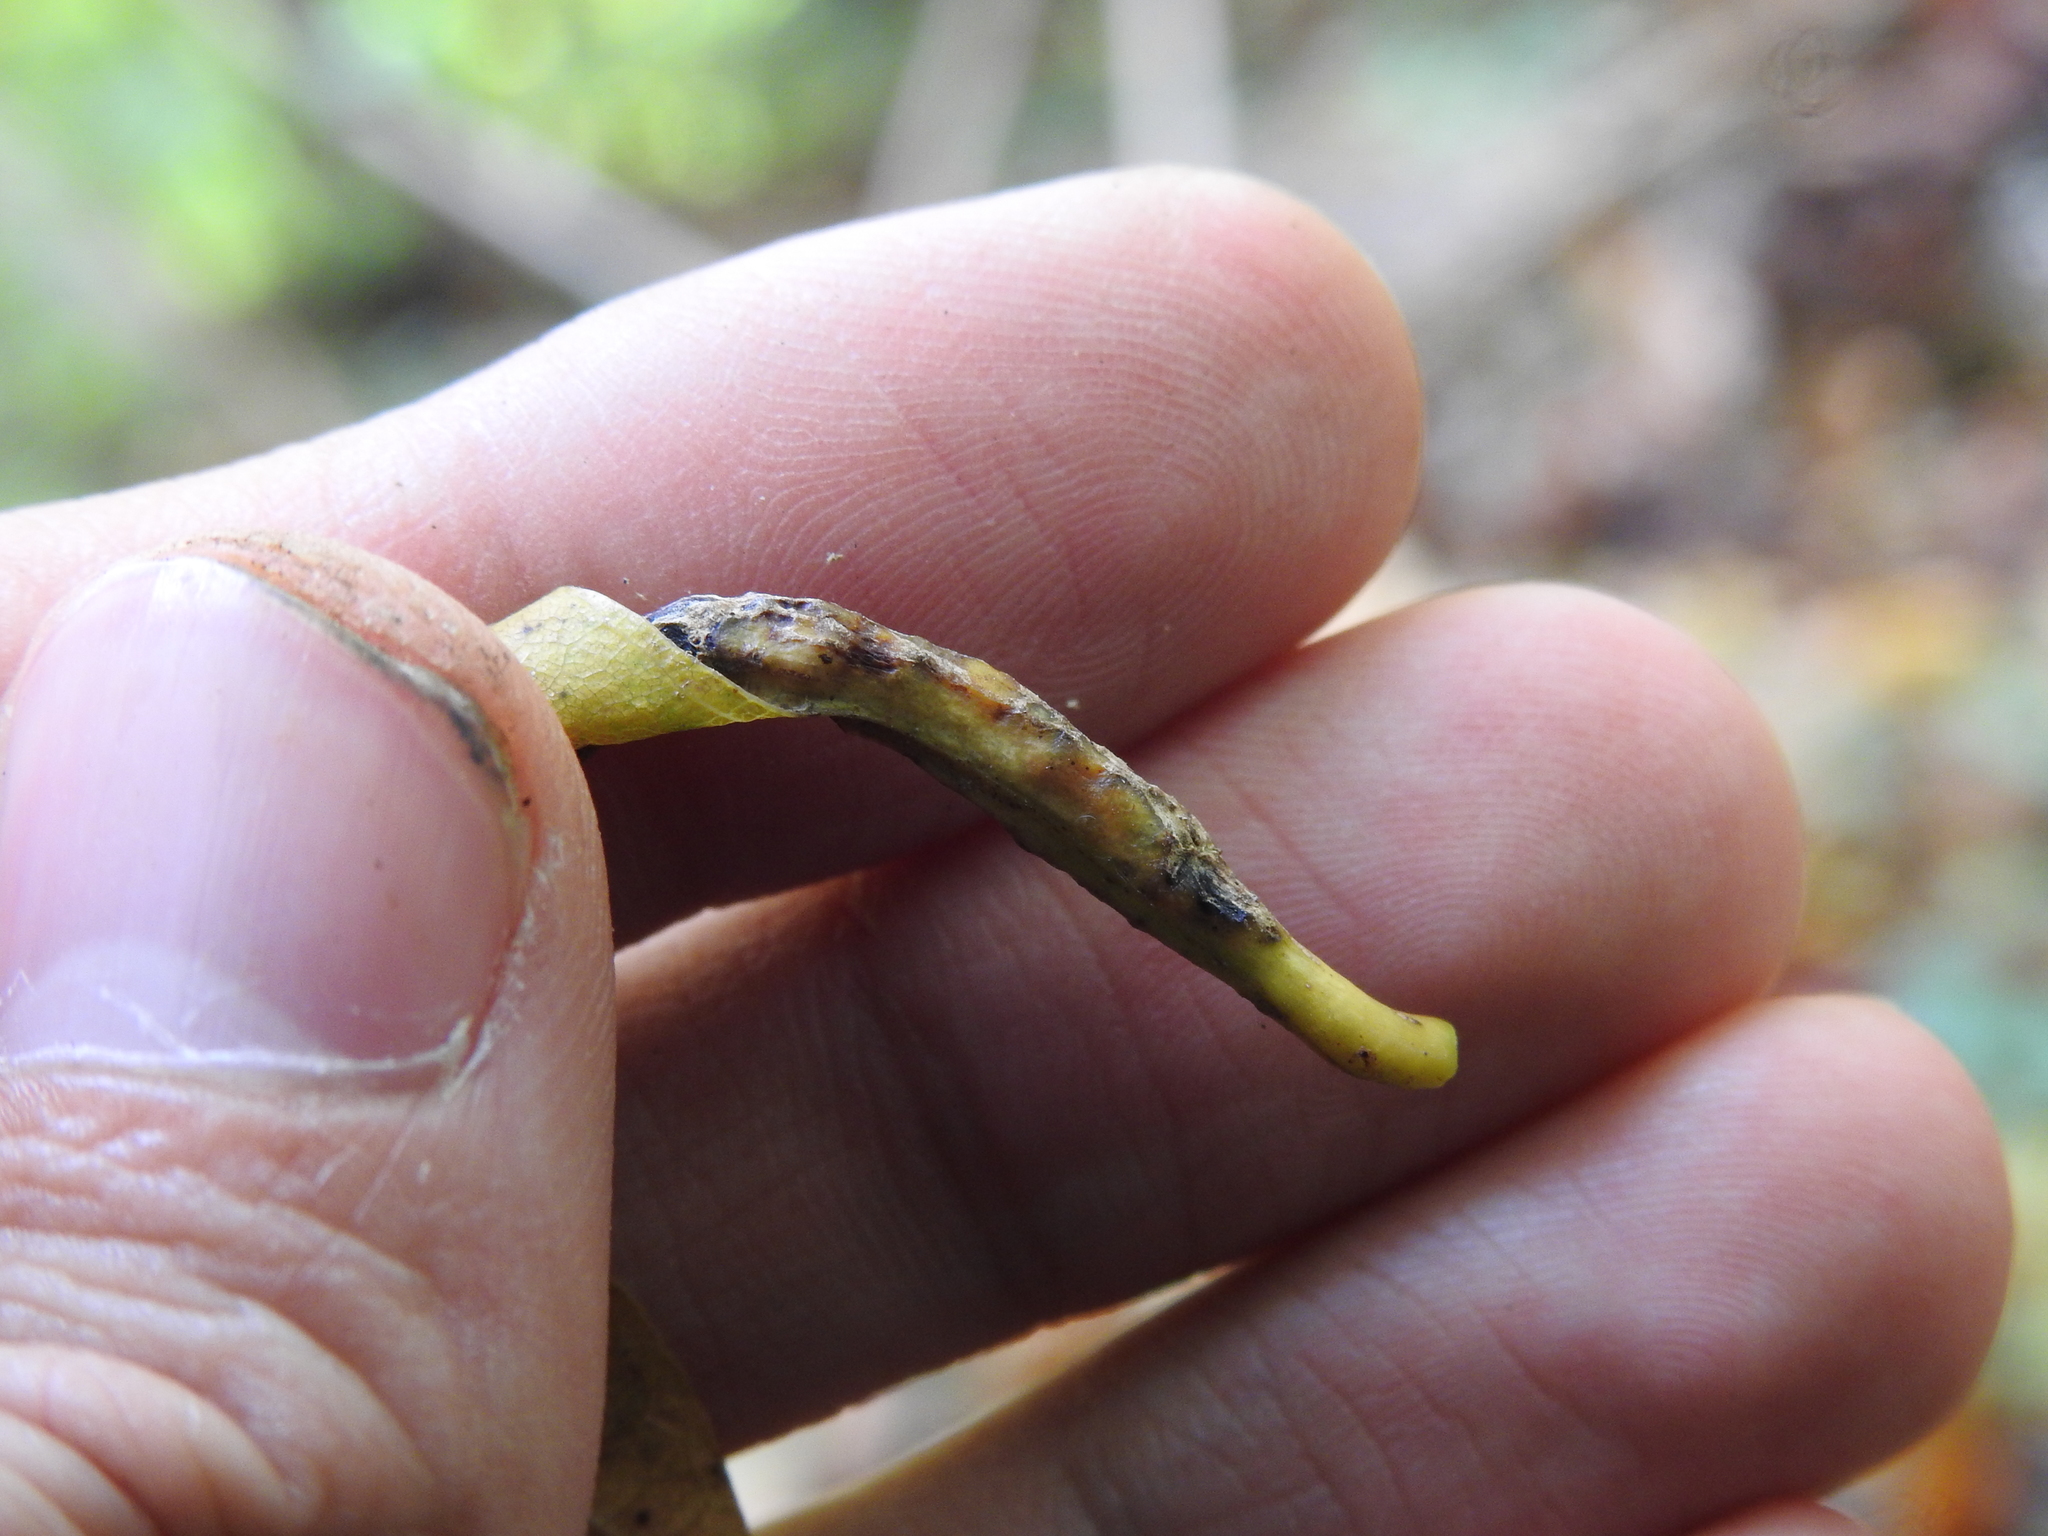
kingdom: Animalia
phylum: Arthropoda
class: Insecta
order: Hymenoptera
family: Cynipidae
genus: Melikaiella
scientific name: Melikaiella tumifica
